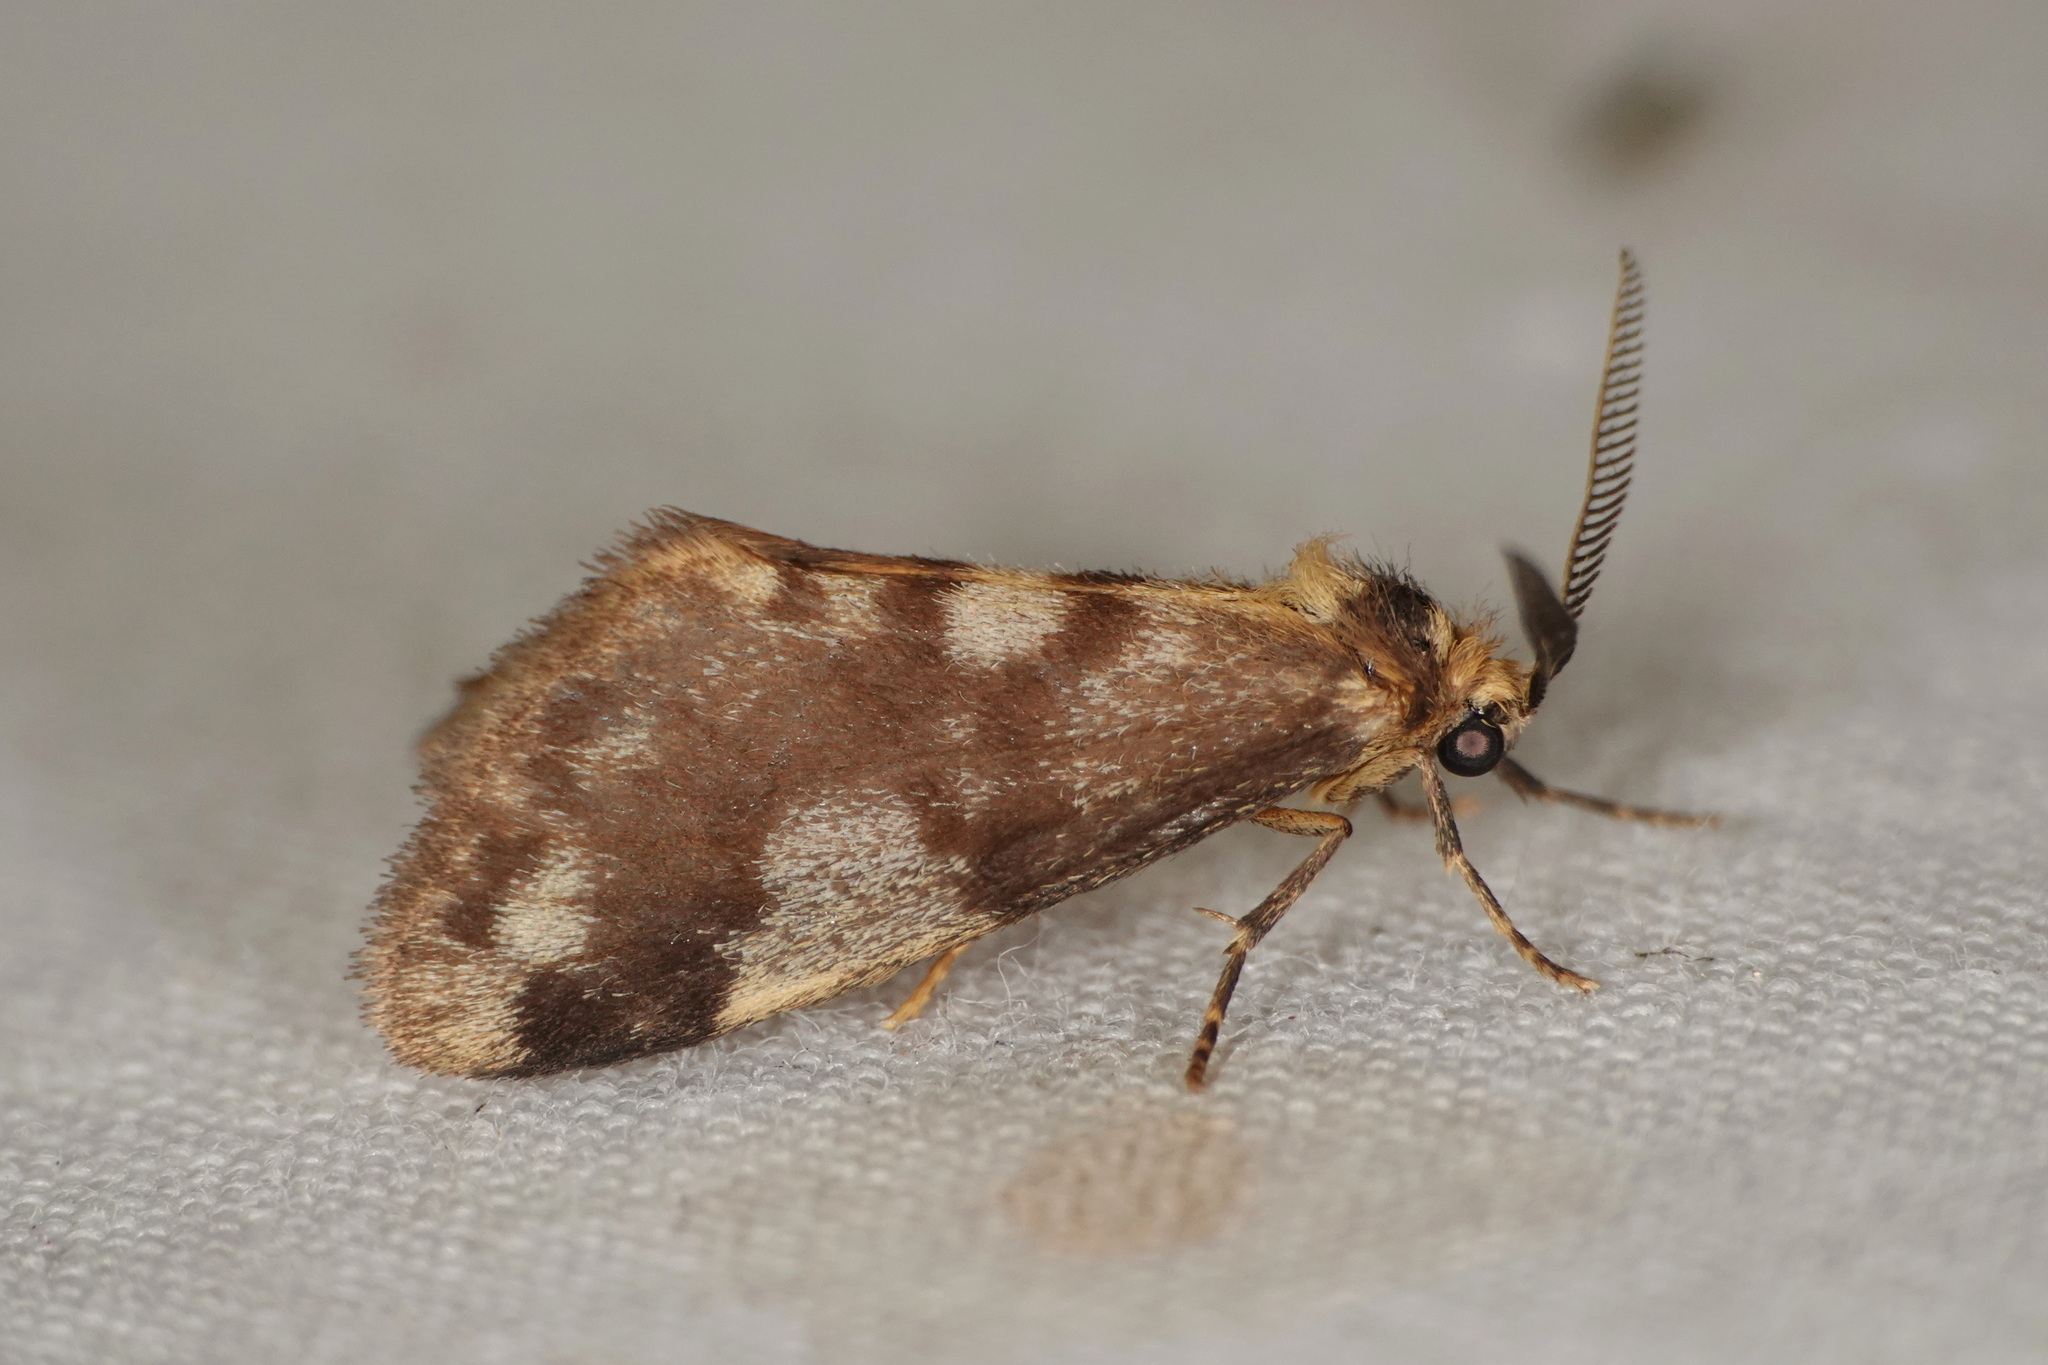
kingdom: Animalia
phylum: Arthropoda
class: Insecta
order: Lepidoptera
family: Erebidae
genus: Anestia
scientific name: Anestia semiochrea
